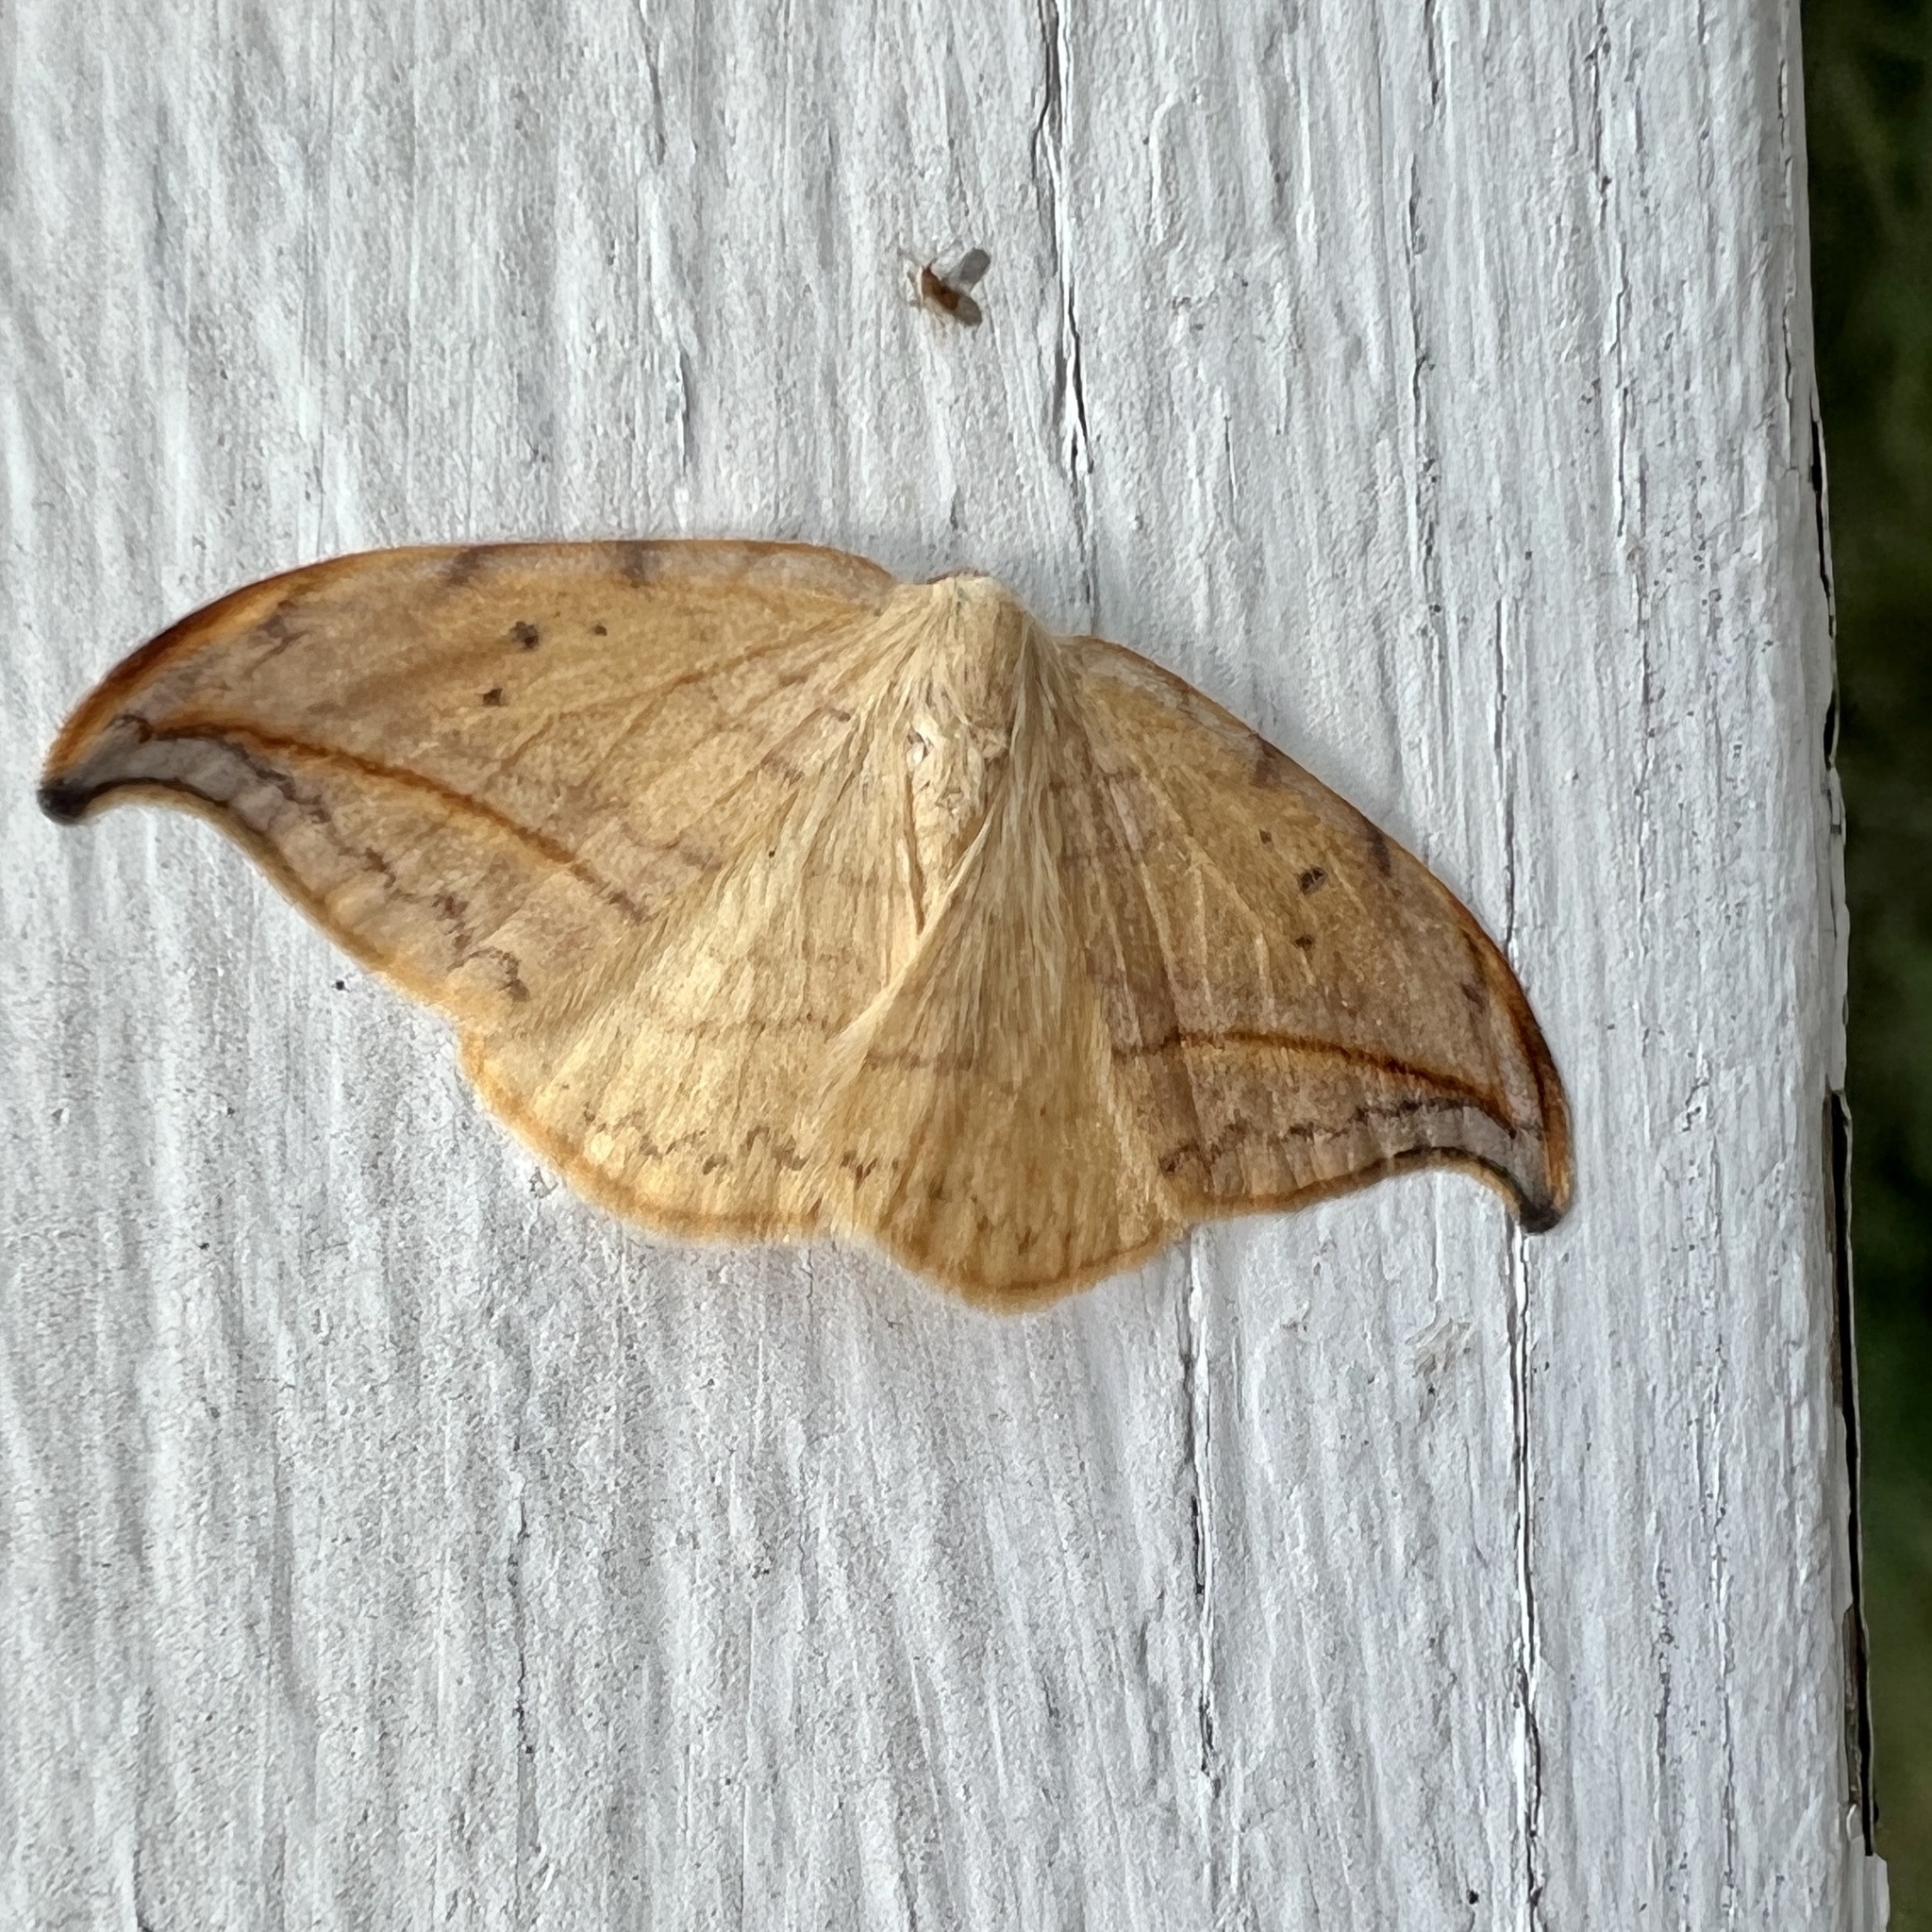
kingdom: Animalia
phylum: Arthropoda
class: Insecta
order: Lepidoptera
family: Drepanidae
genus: Drepana
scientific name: Drepana arcuata
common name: Arched hooktip moth
